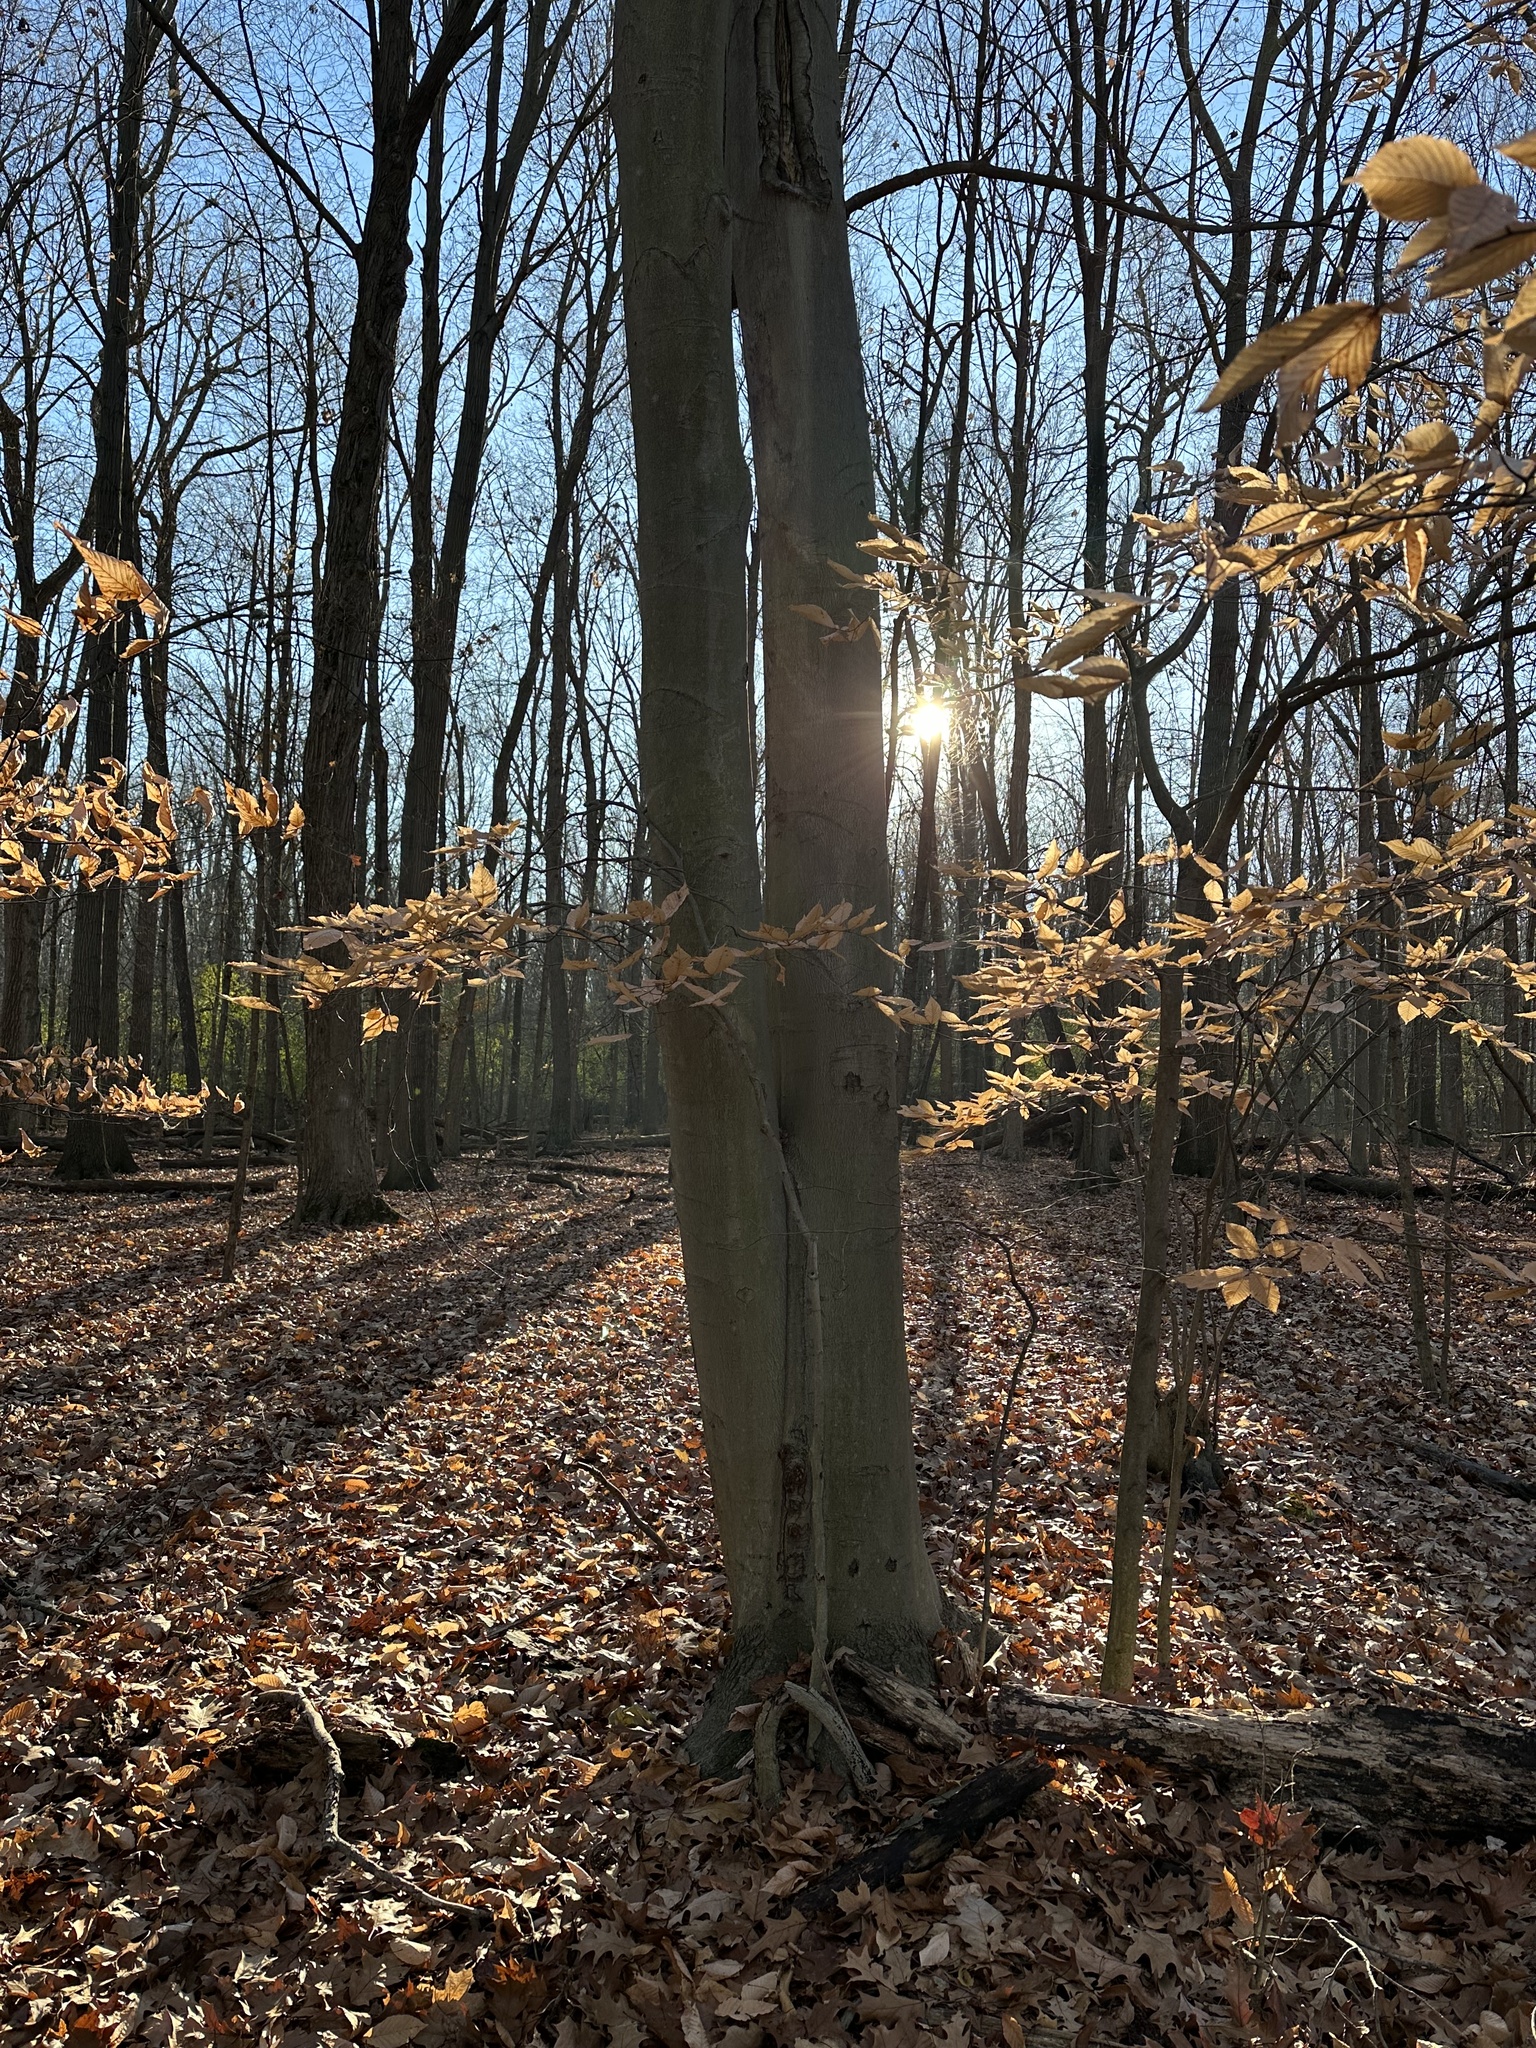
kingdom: Plantae
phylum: Tracheophyta
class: Magnoliopsida
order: Fagales
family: Fagaceae
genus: Fagus
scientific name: Fagus grandifolia
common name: American beech
